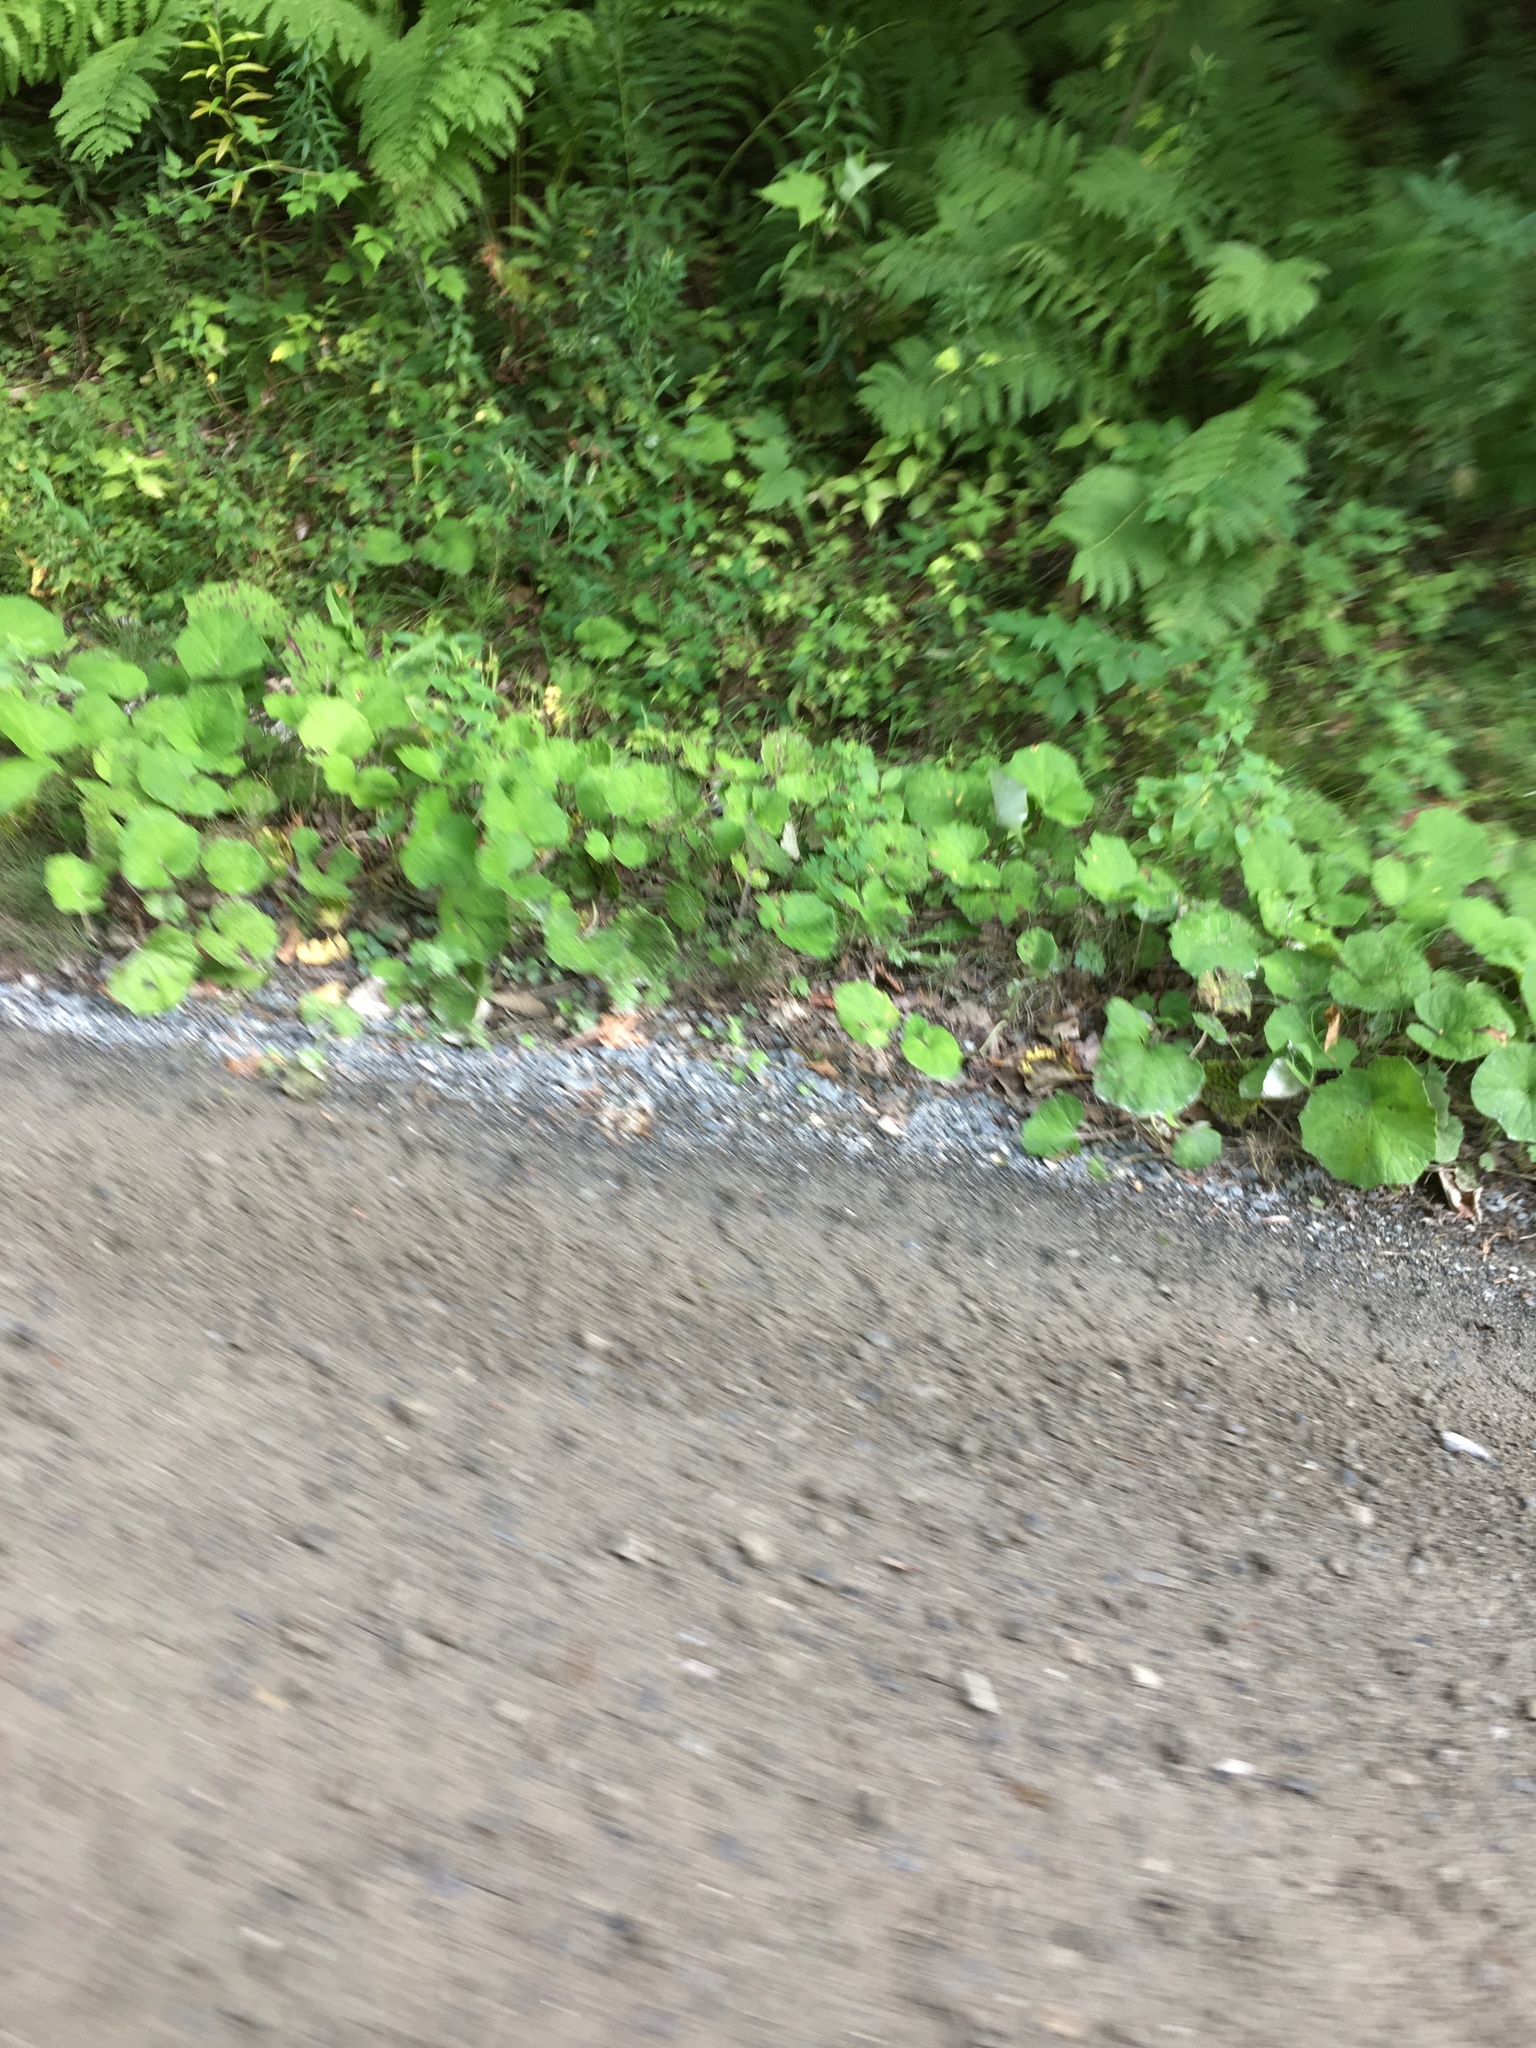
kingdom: Plantae
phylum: Tracheophyta
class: Magnoliopsida
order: Asterales
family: Asteraceae
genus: Tussilago
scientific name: Tussilago farfara
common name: Coltsfoot
